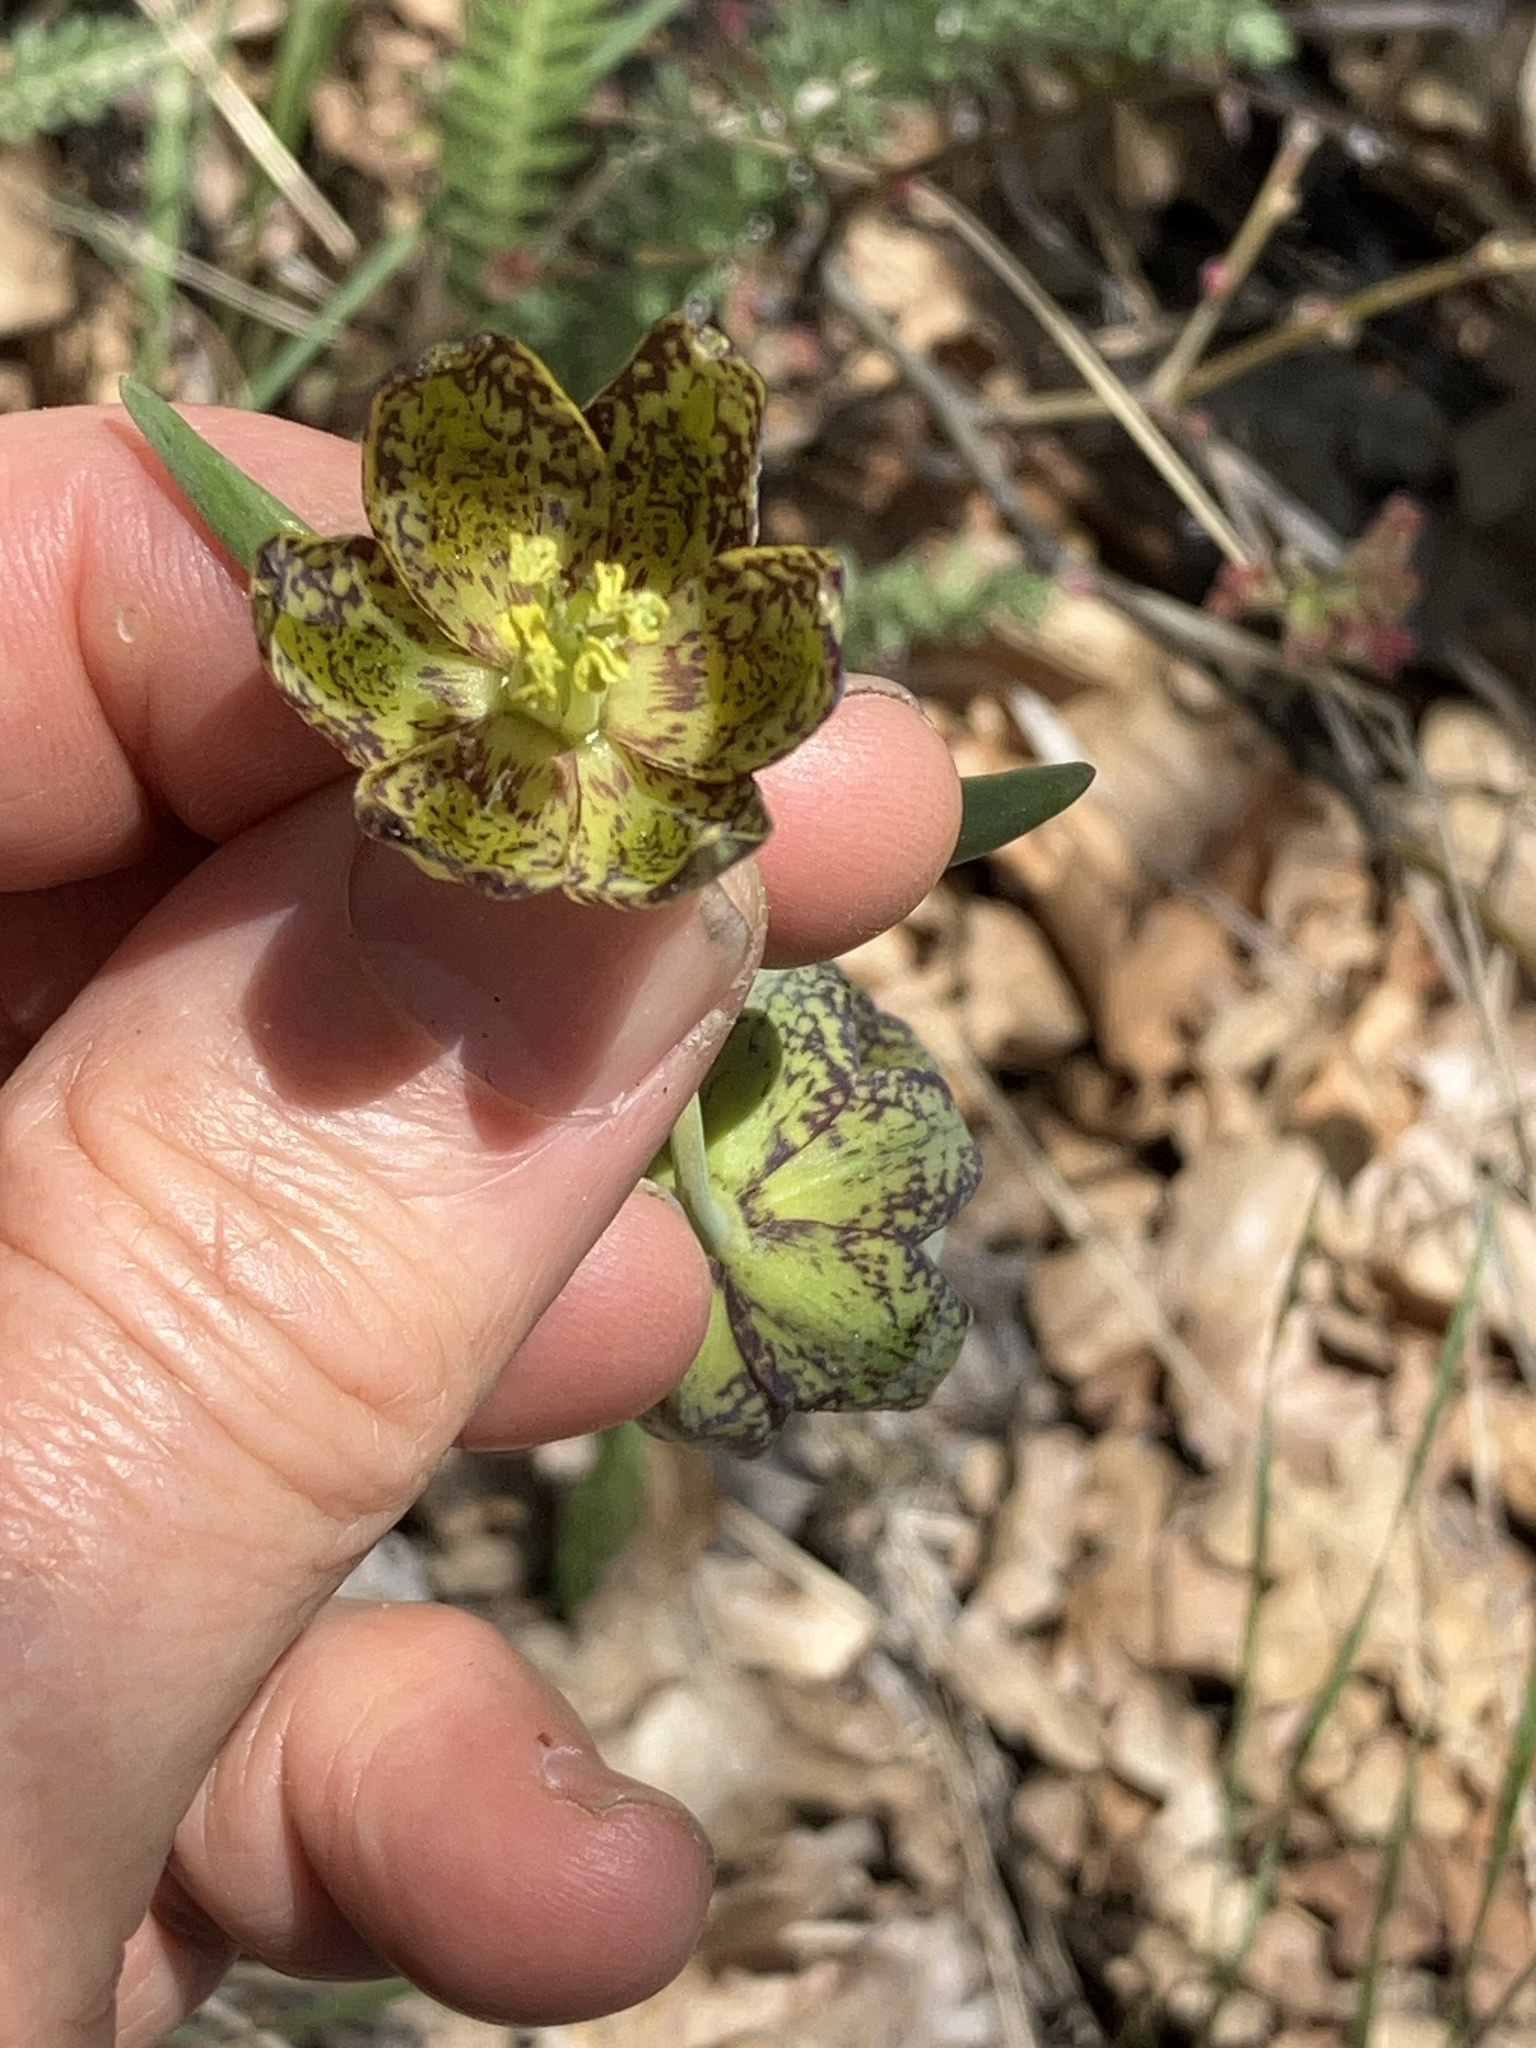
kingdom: Plantae
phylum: Tracheophyta
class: Liliopsida
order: Liliales
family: Liliaceae
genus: Fritillaria
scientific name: Fritillaria affinis
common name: Ojai fritillary
